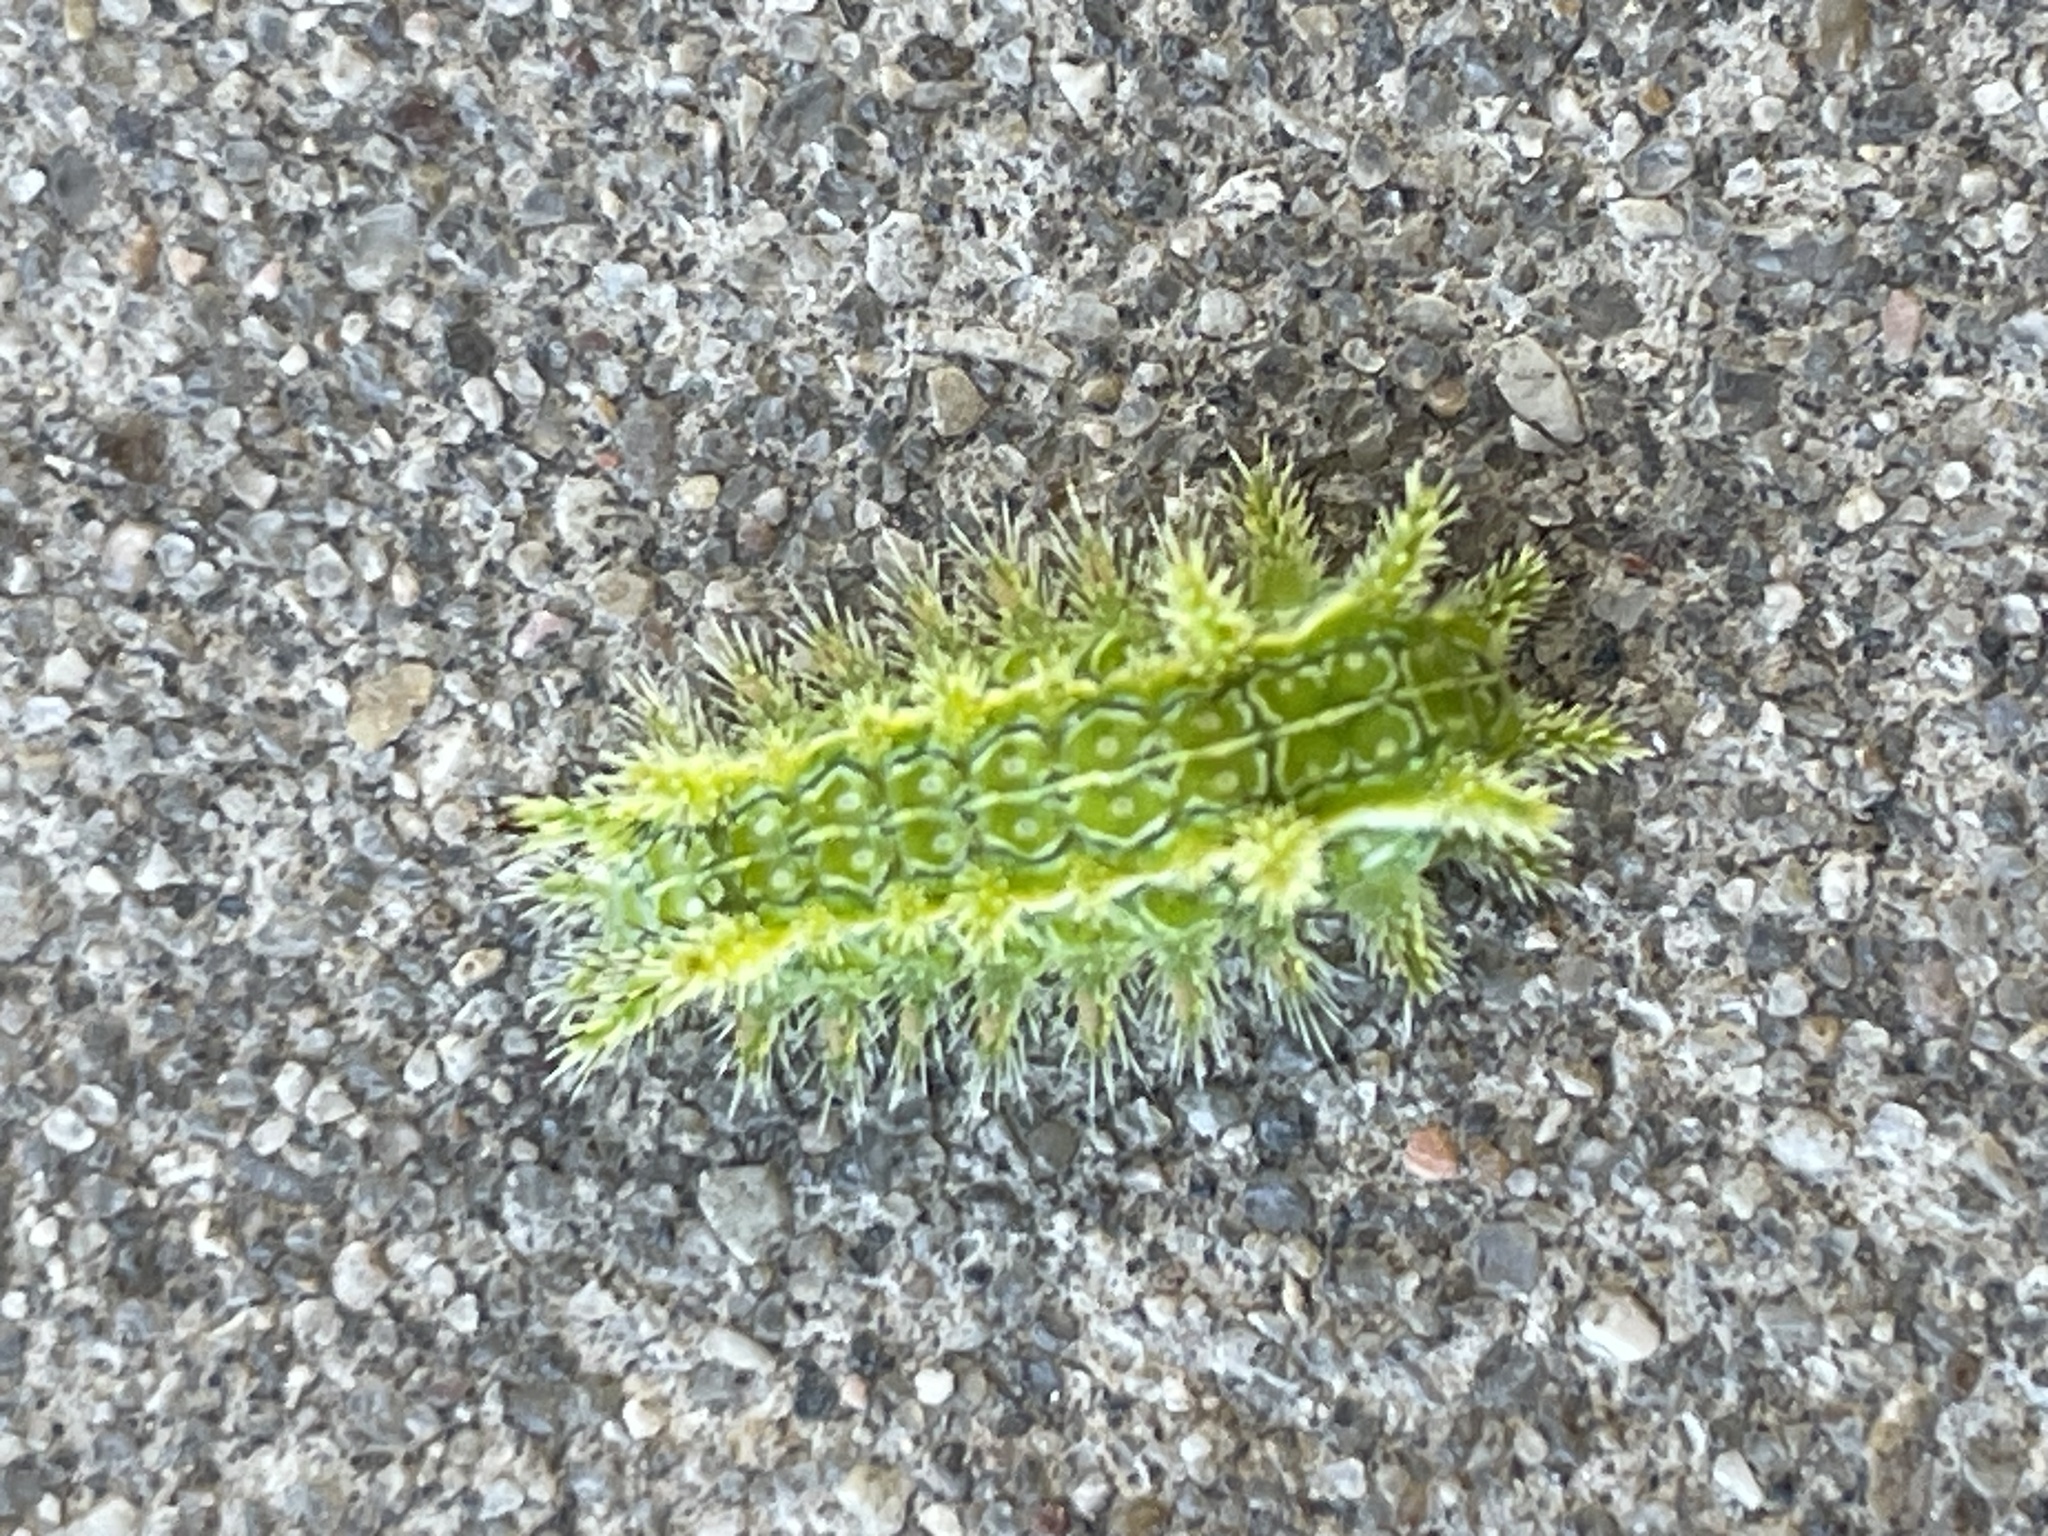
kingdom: Animalia
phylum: Arthropoda
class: Insecta
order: Lepidoptera
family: Limacodidae
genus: Euclea
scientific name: Euclea incisa
